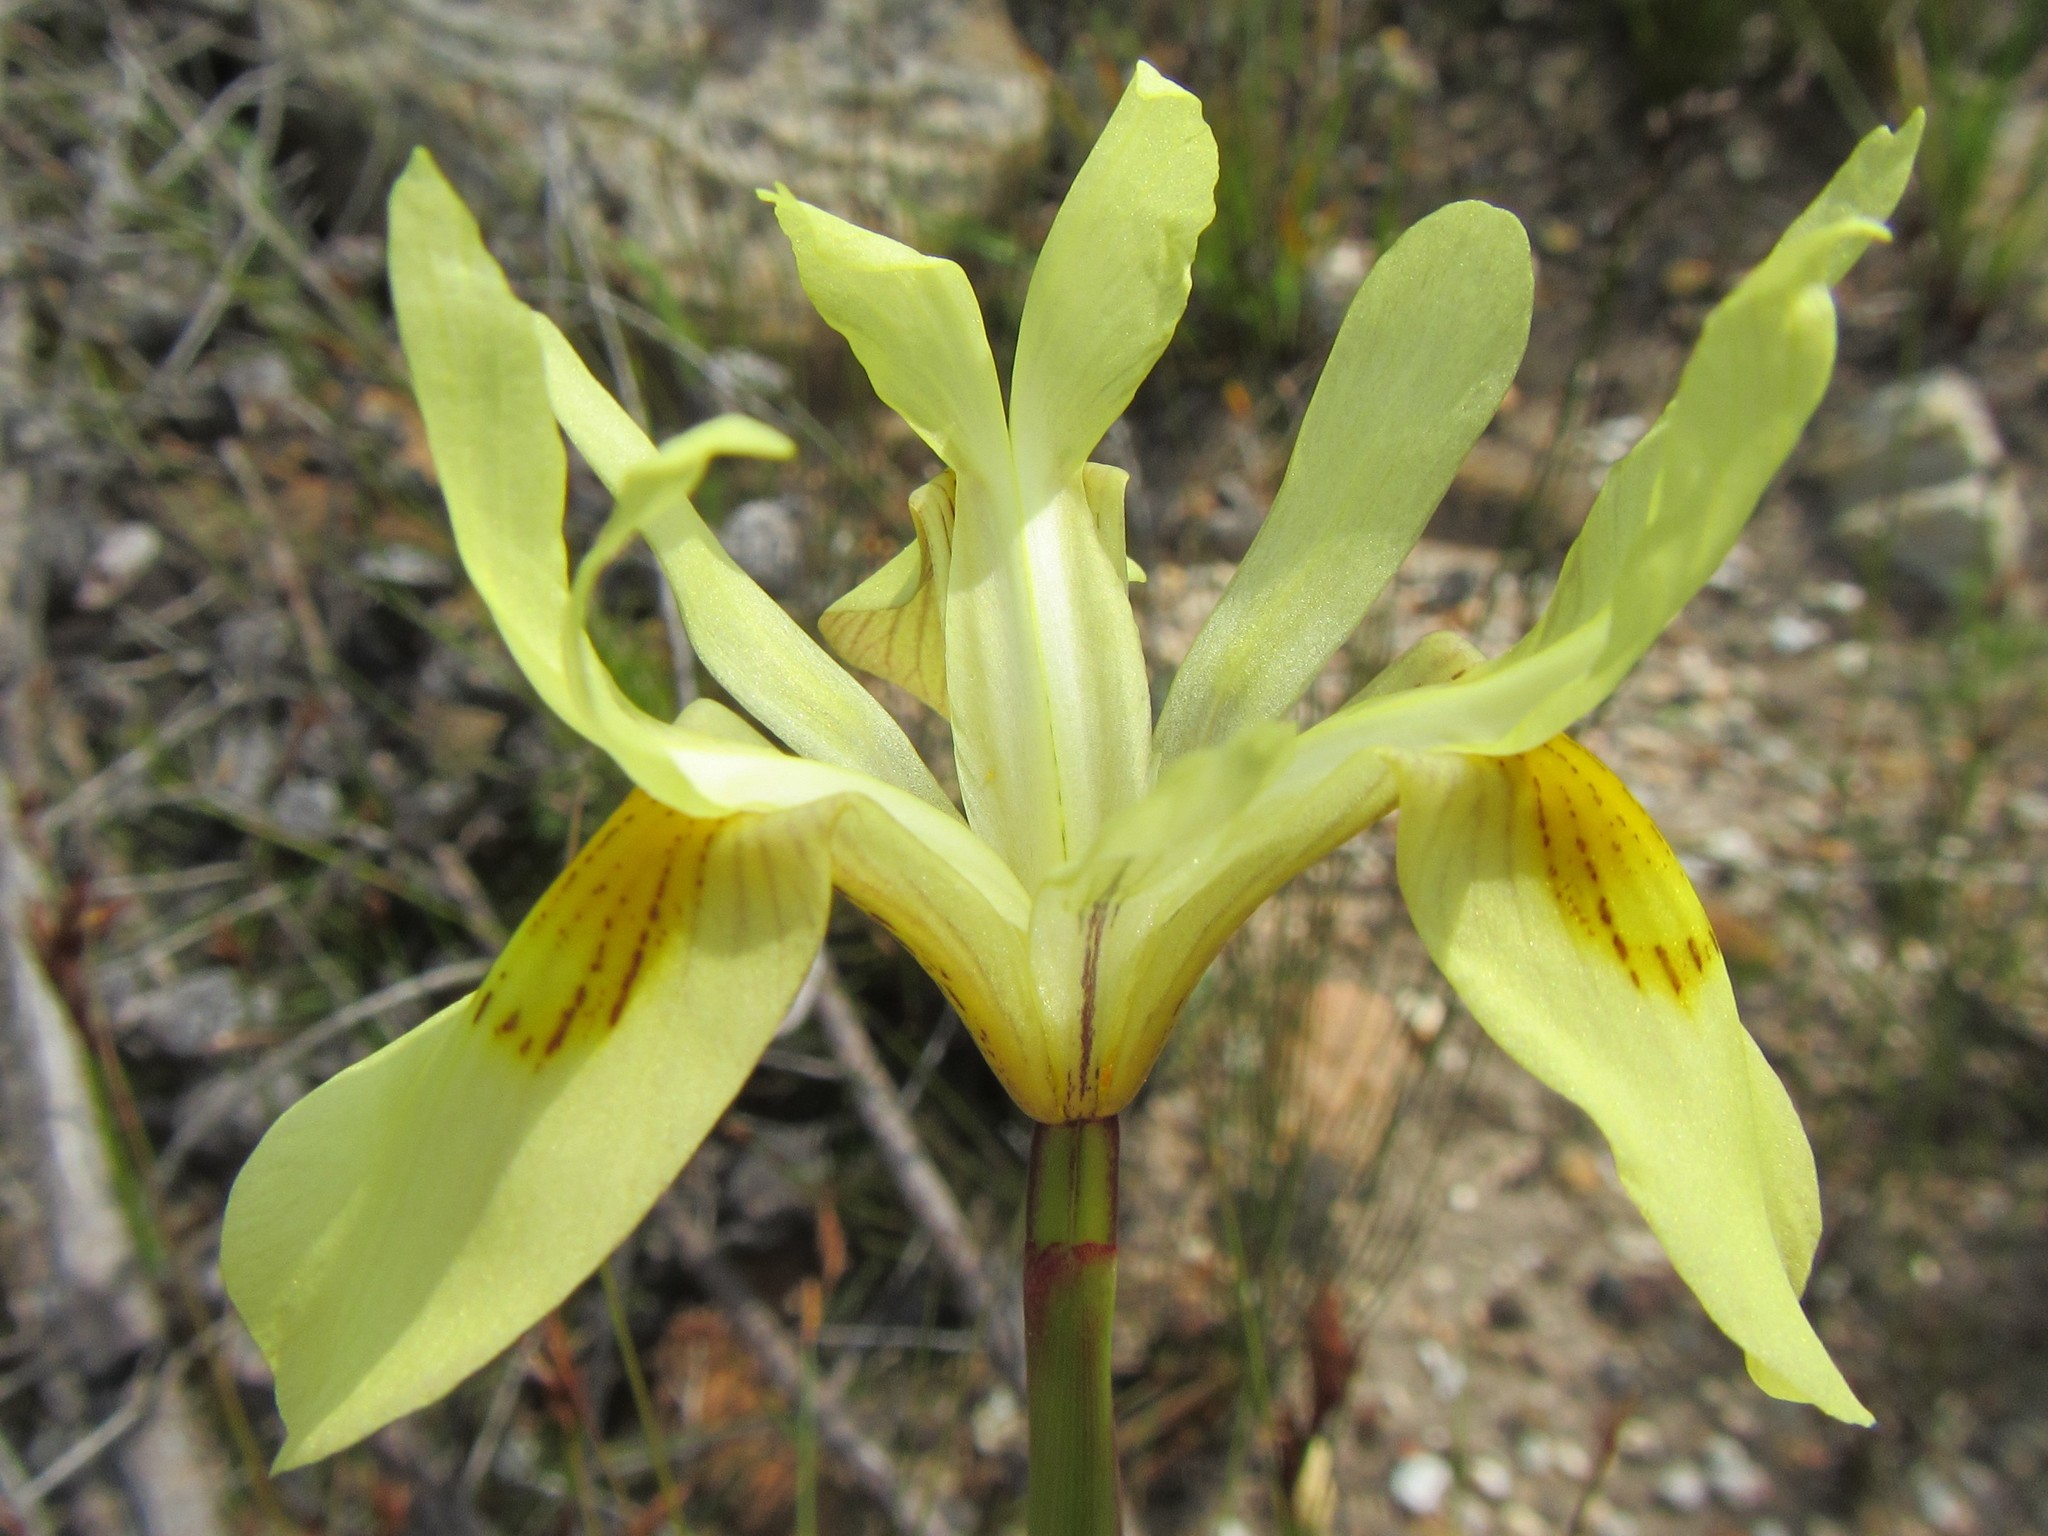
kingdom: Plantae
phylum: Tracheophyta
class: Liliopsida
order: Asparagales
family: Iridaceae
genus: Moraea
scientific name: Moraea neglecta
